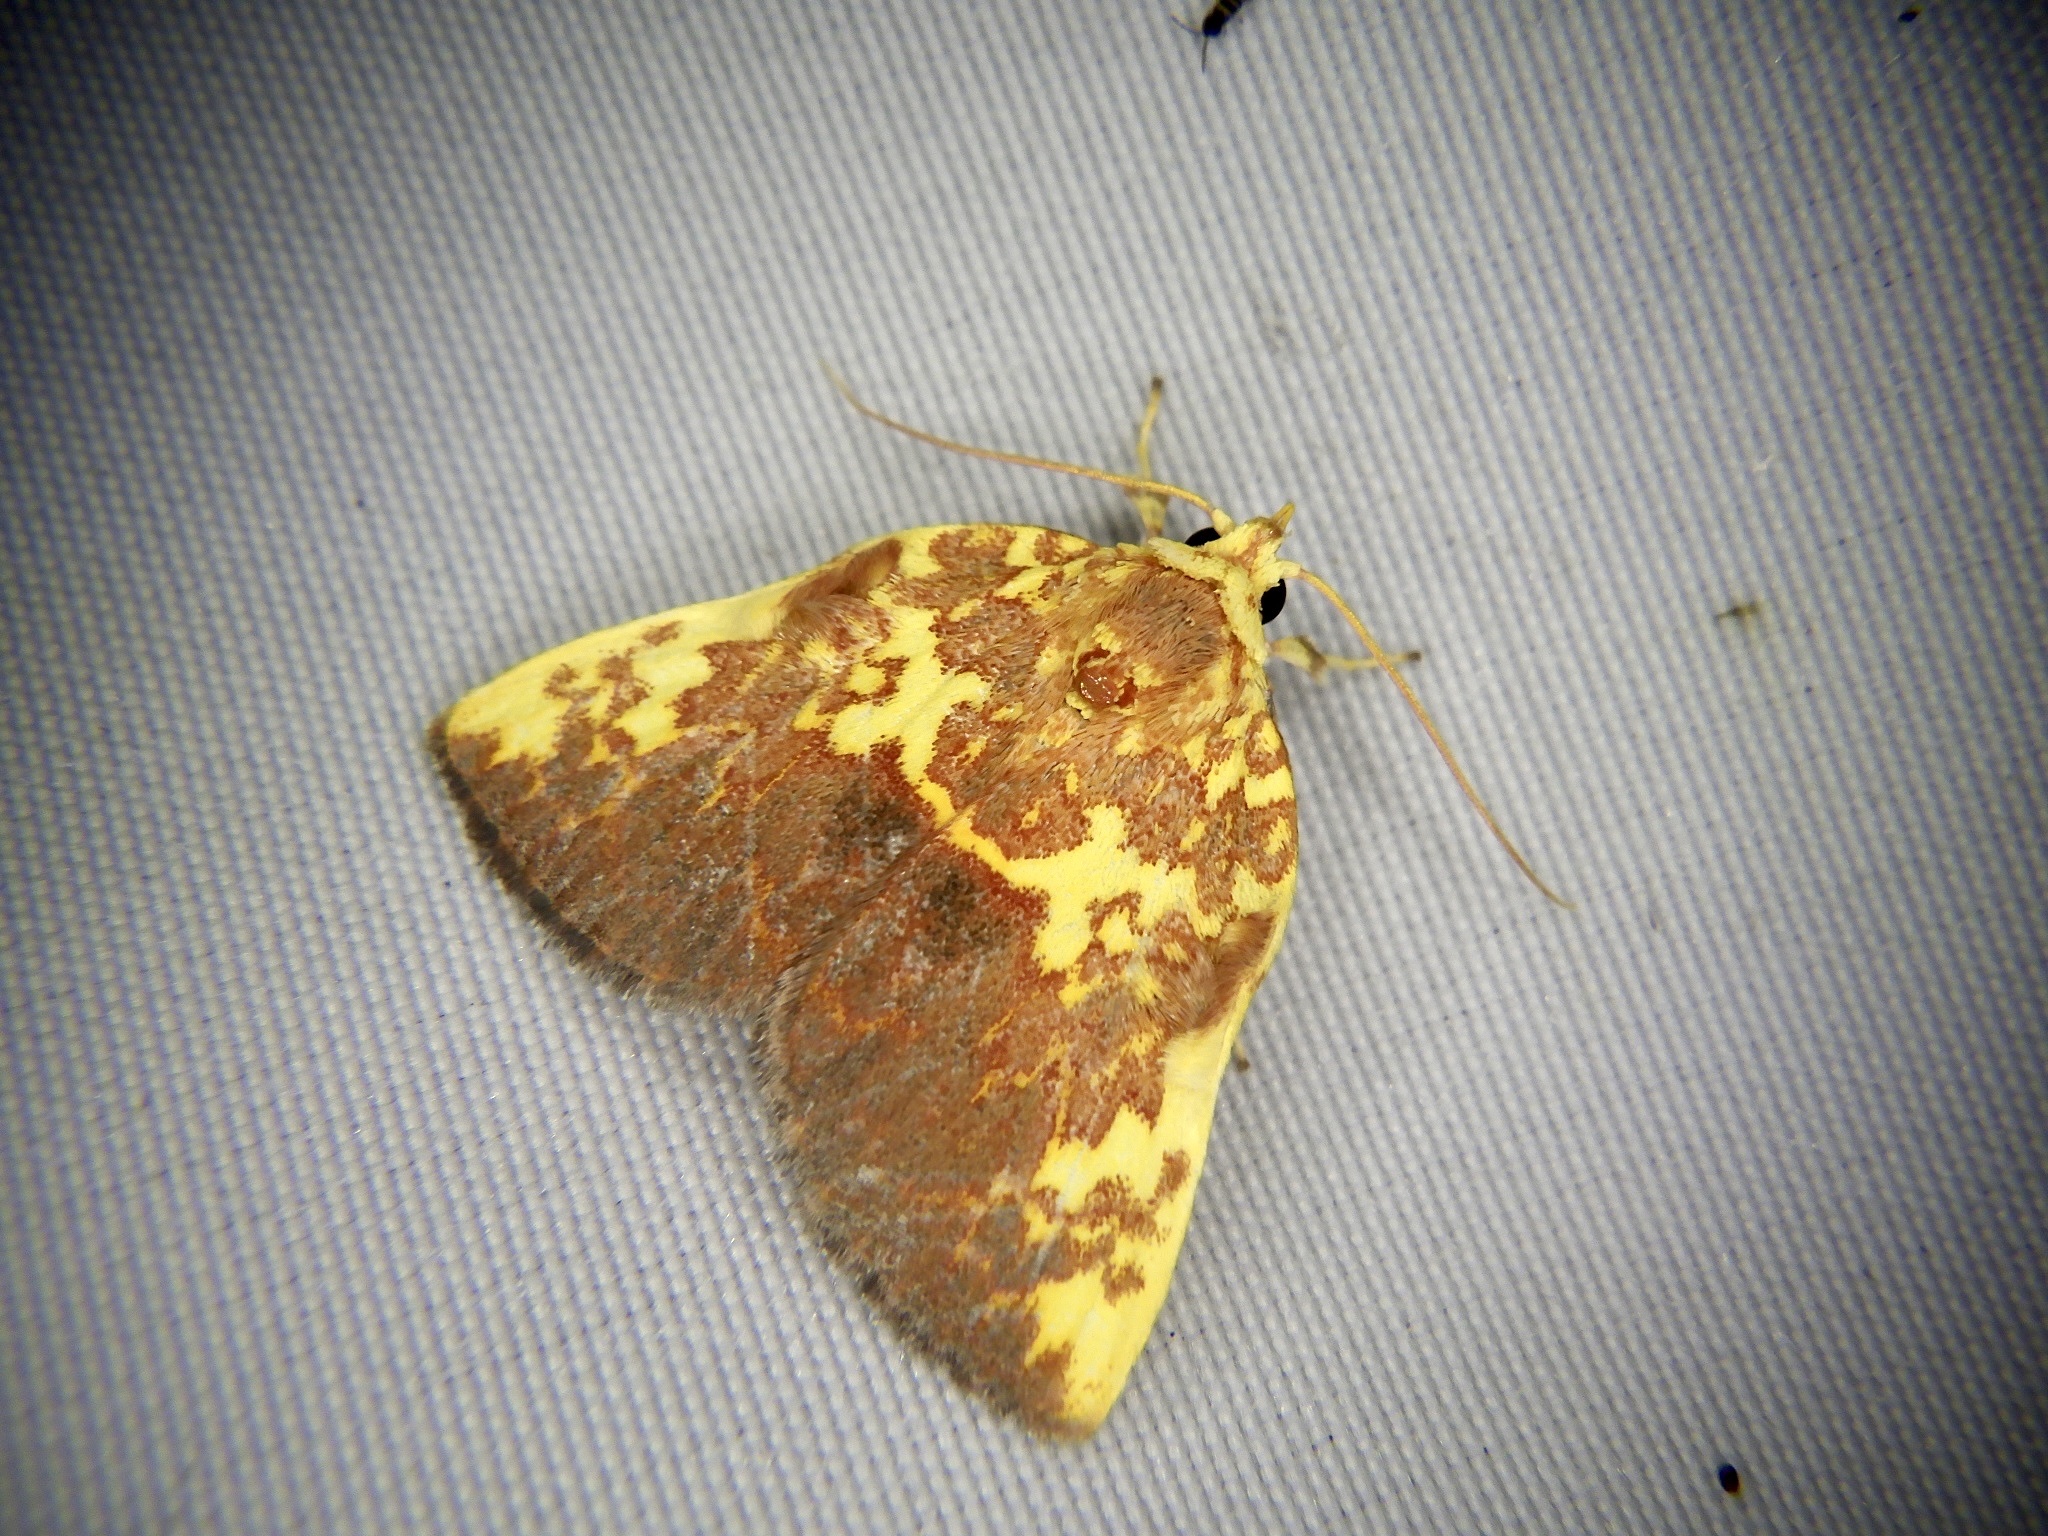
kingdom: Animalia
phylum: Arthropoda
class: Insecta
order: Lepidoptera
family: Nolidae
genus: Siglophora
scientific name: Siglophora ferreilutea
